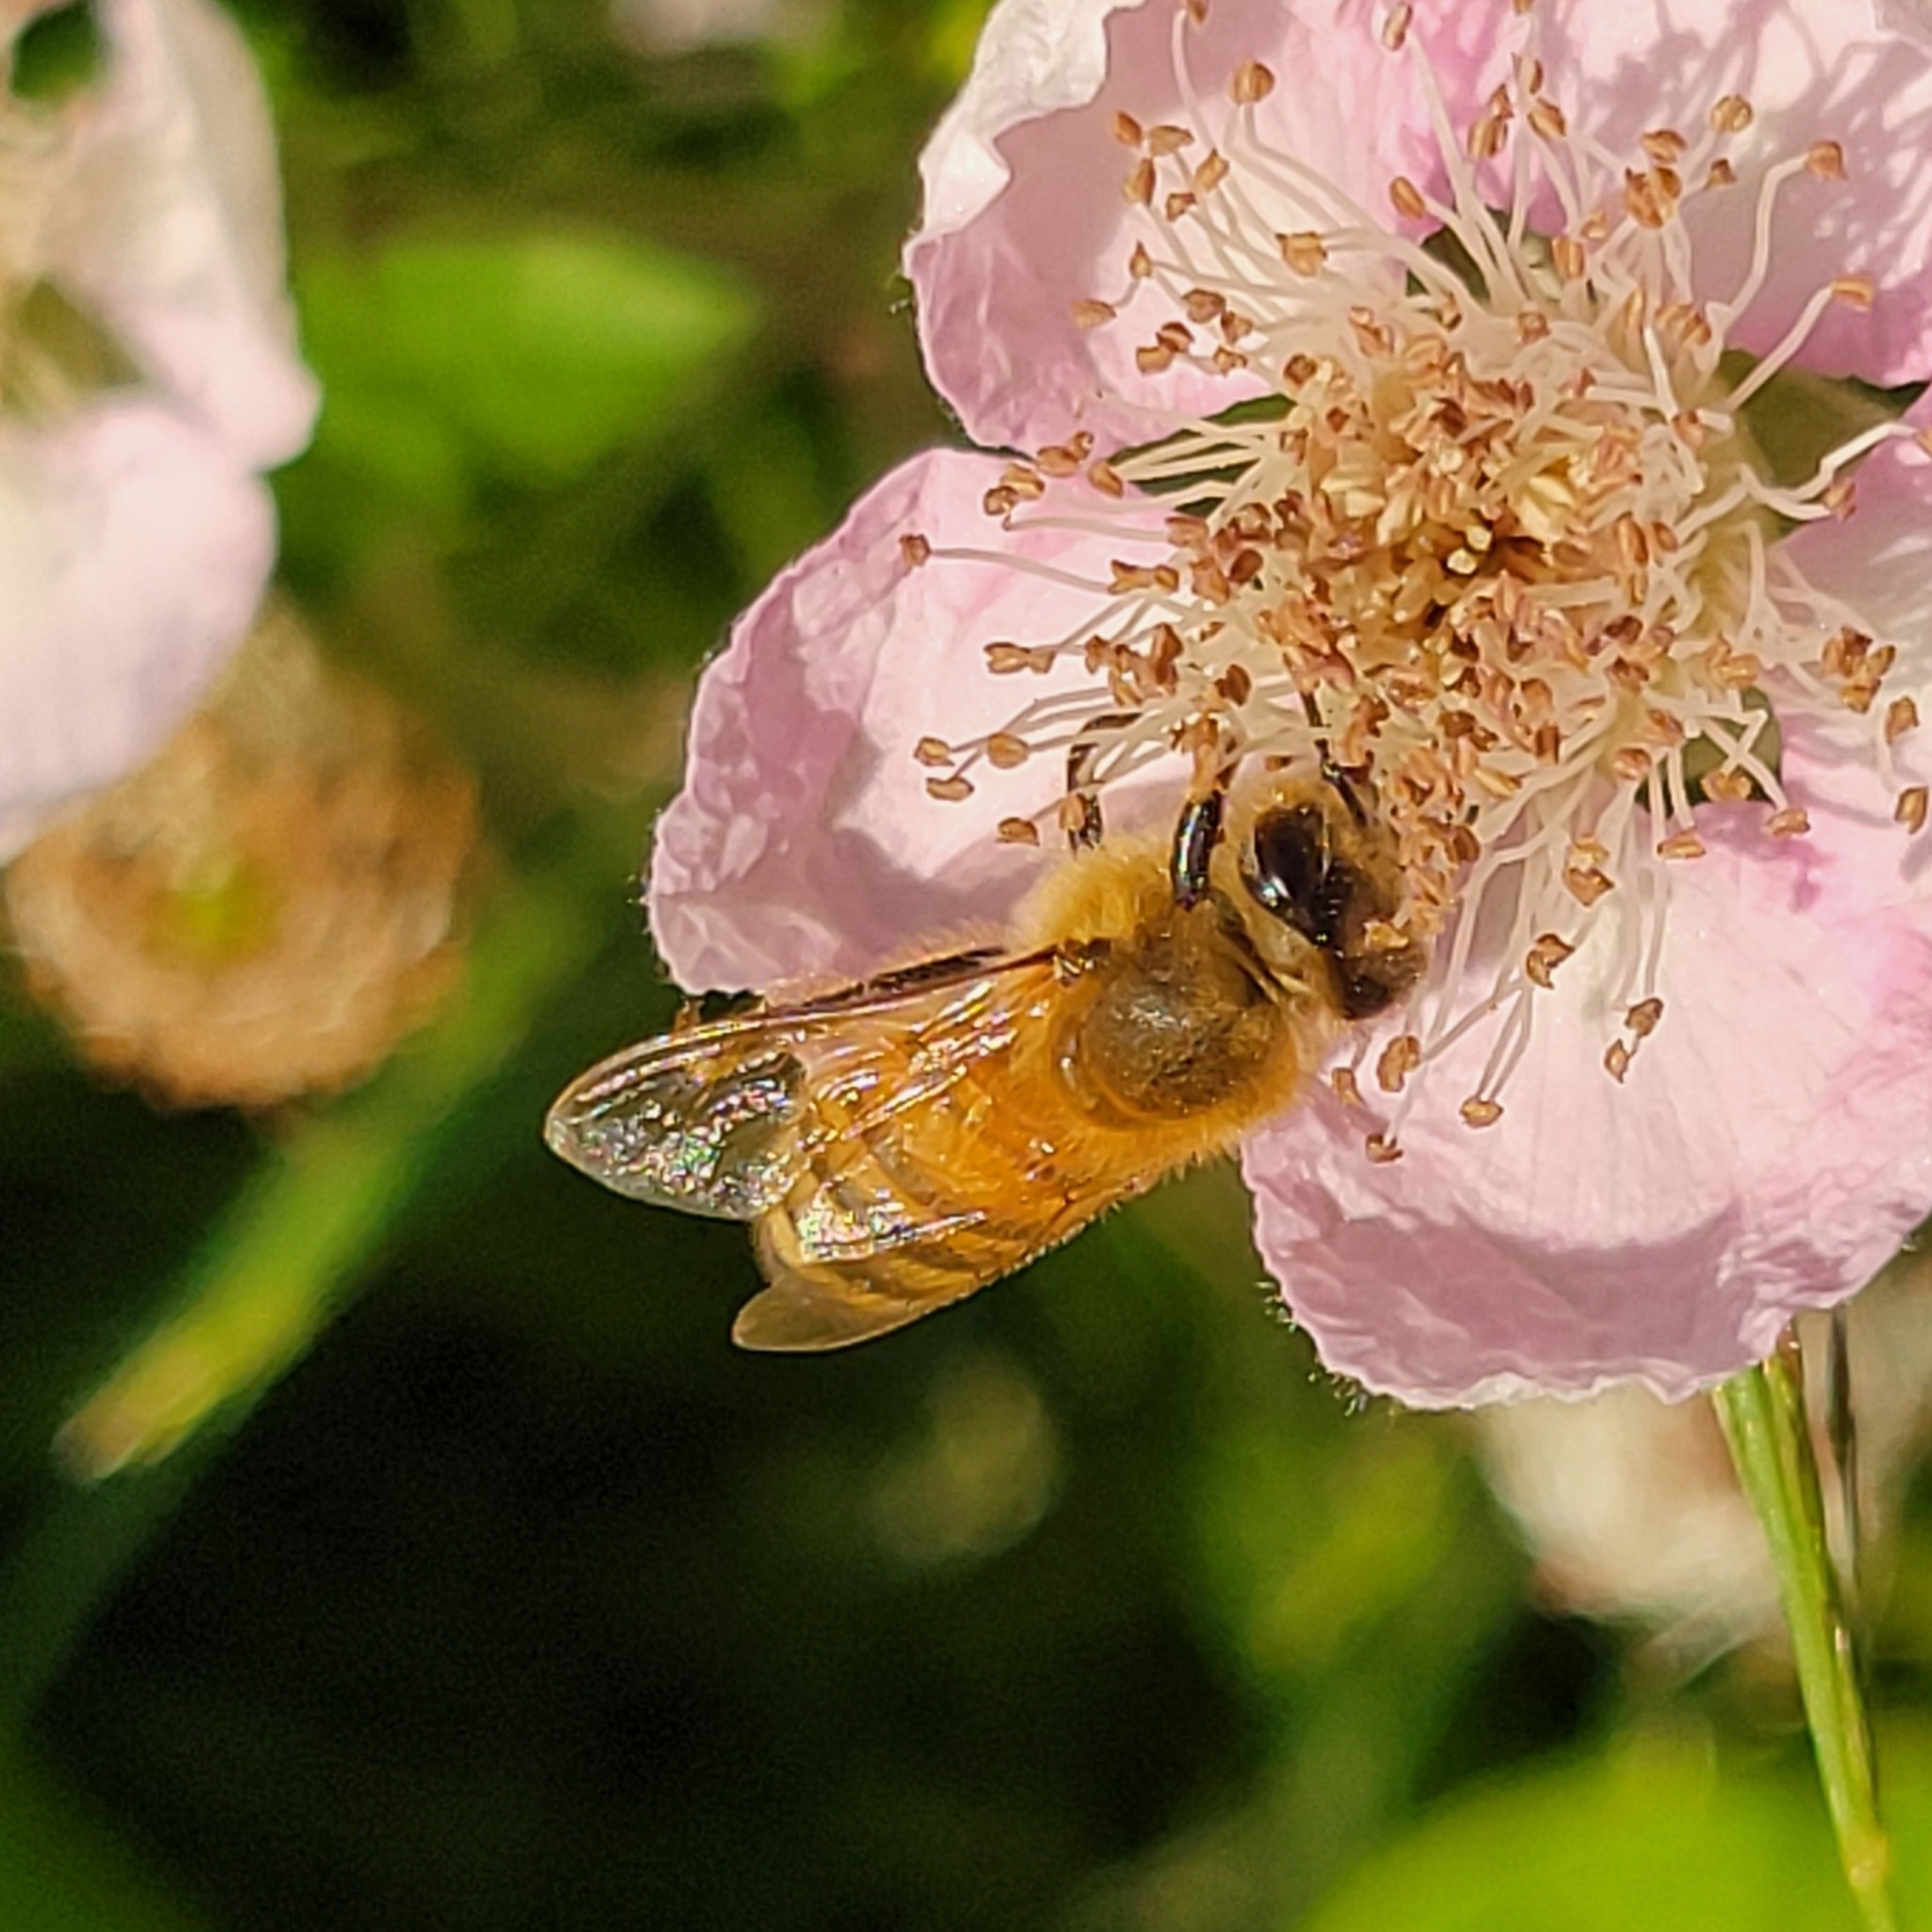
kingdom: Animalia
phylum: Arthropoda
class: Insecta
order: Hymenoptera
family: Apidae
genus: Apis
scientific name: Apis mellifera
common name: Honey bee
